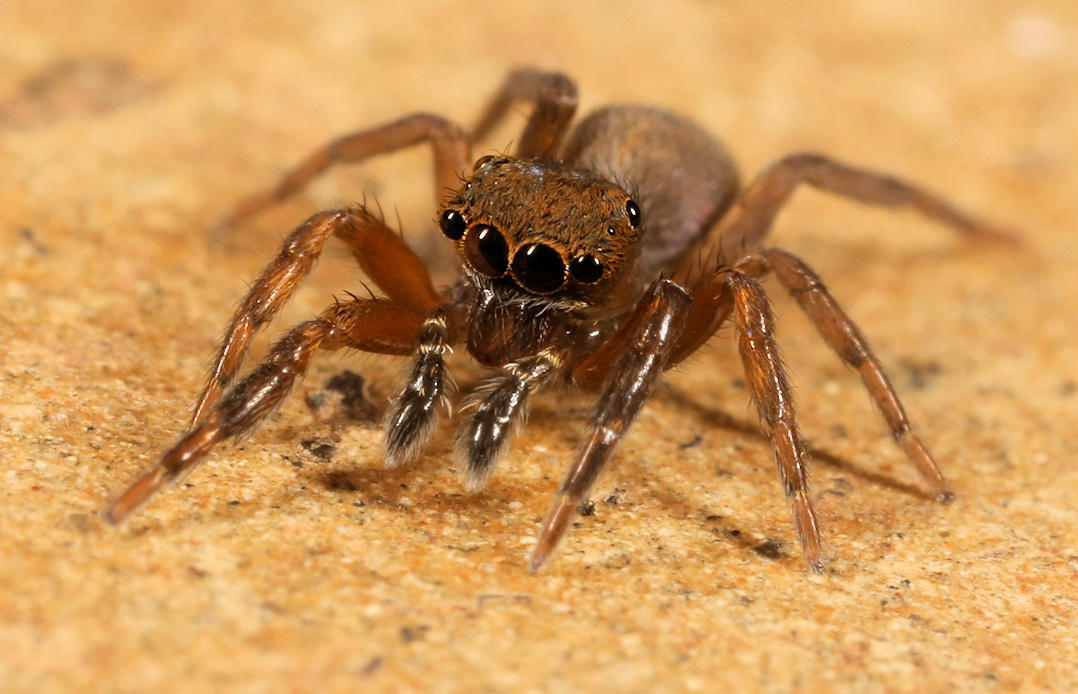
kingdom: Animalia
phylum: Arthropoda
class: Arachnida
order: Araneae
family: Salticidae
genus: Cyrba
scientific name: Cyrba lineata
